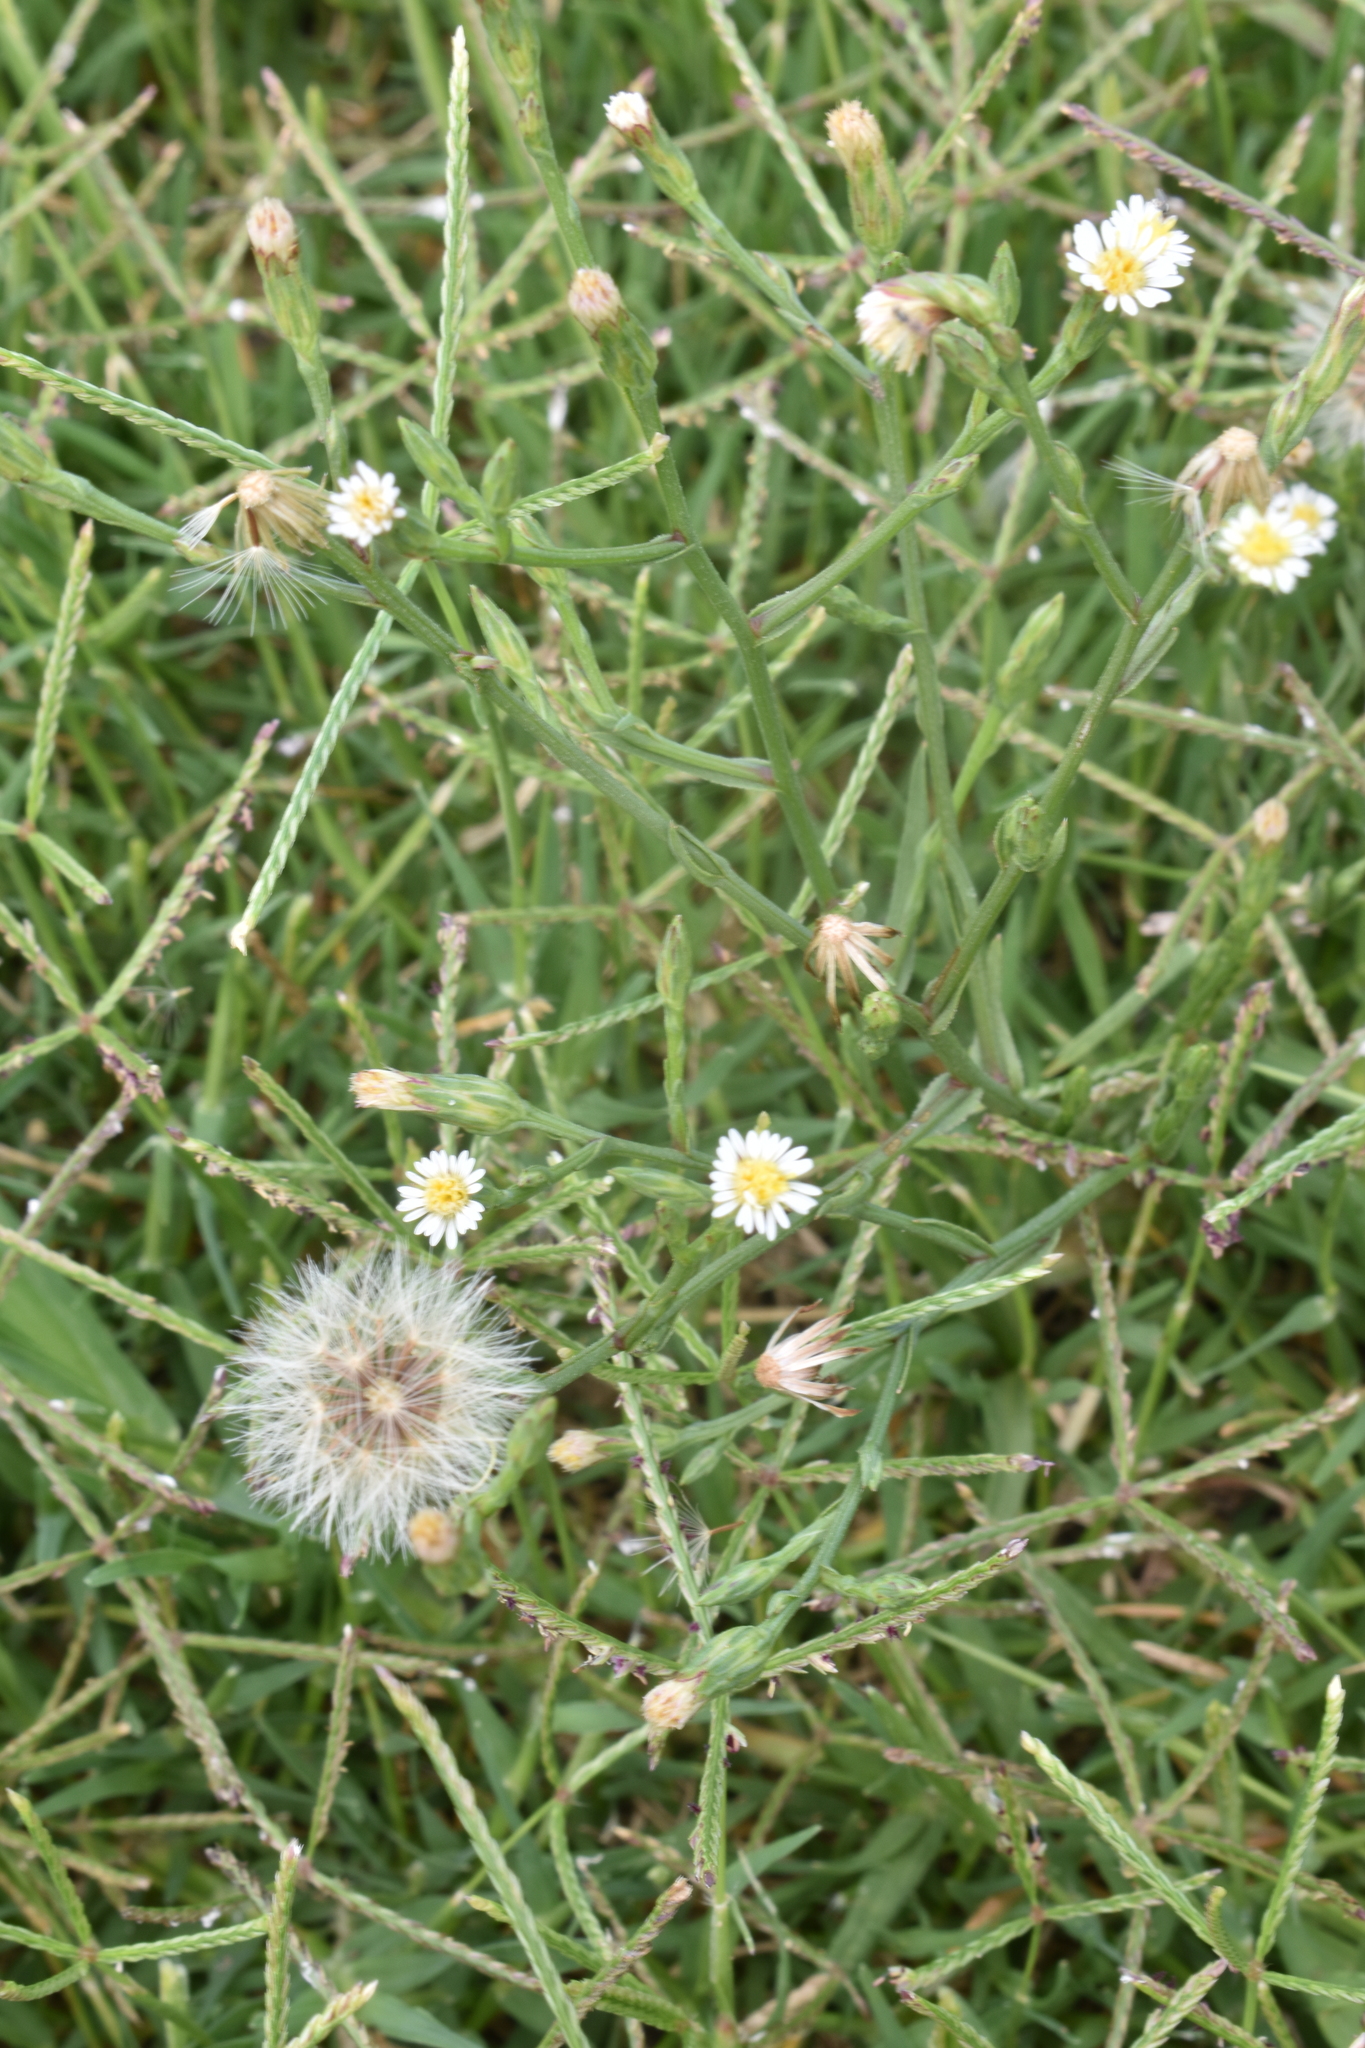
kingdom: Plantae
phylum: Tracheophyta
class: Magnoliopsida
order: Asterales
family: Asteraceae
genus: Symphyotrichum
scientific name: Symphyotrichum squamatum
